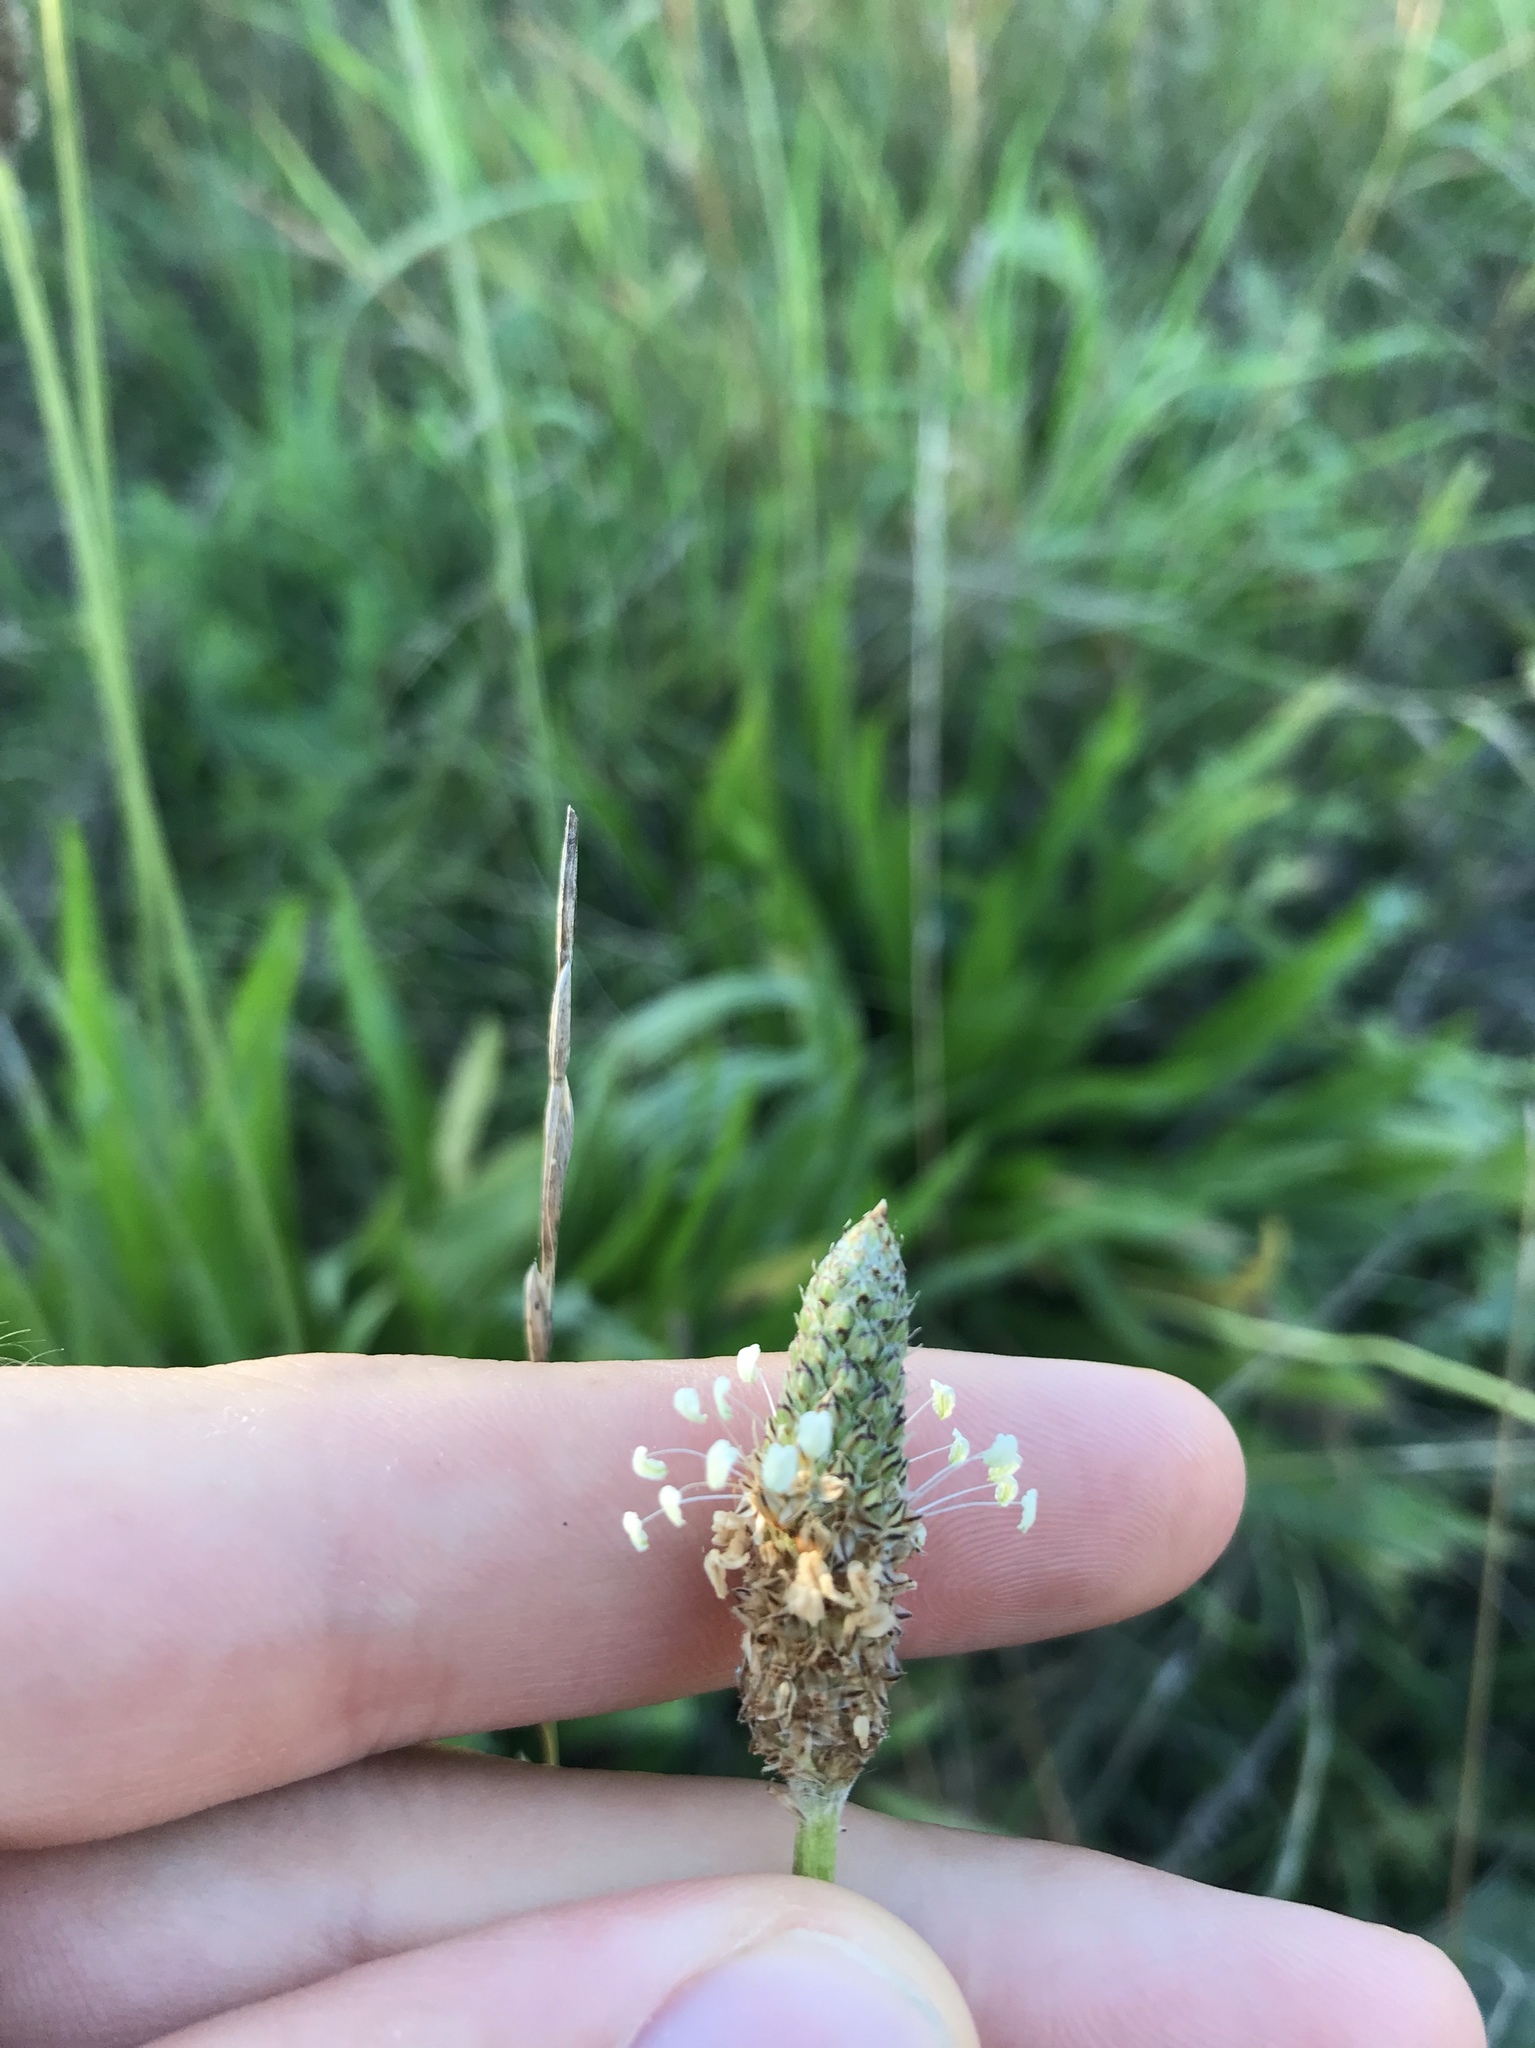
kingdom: Plantae
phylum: Tracheophyta
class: Magnoliopsida
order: Lamiales
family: Plantaginaceae
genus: Plantago
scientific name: Plantago lanceolata
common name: Ribwort plantain
